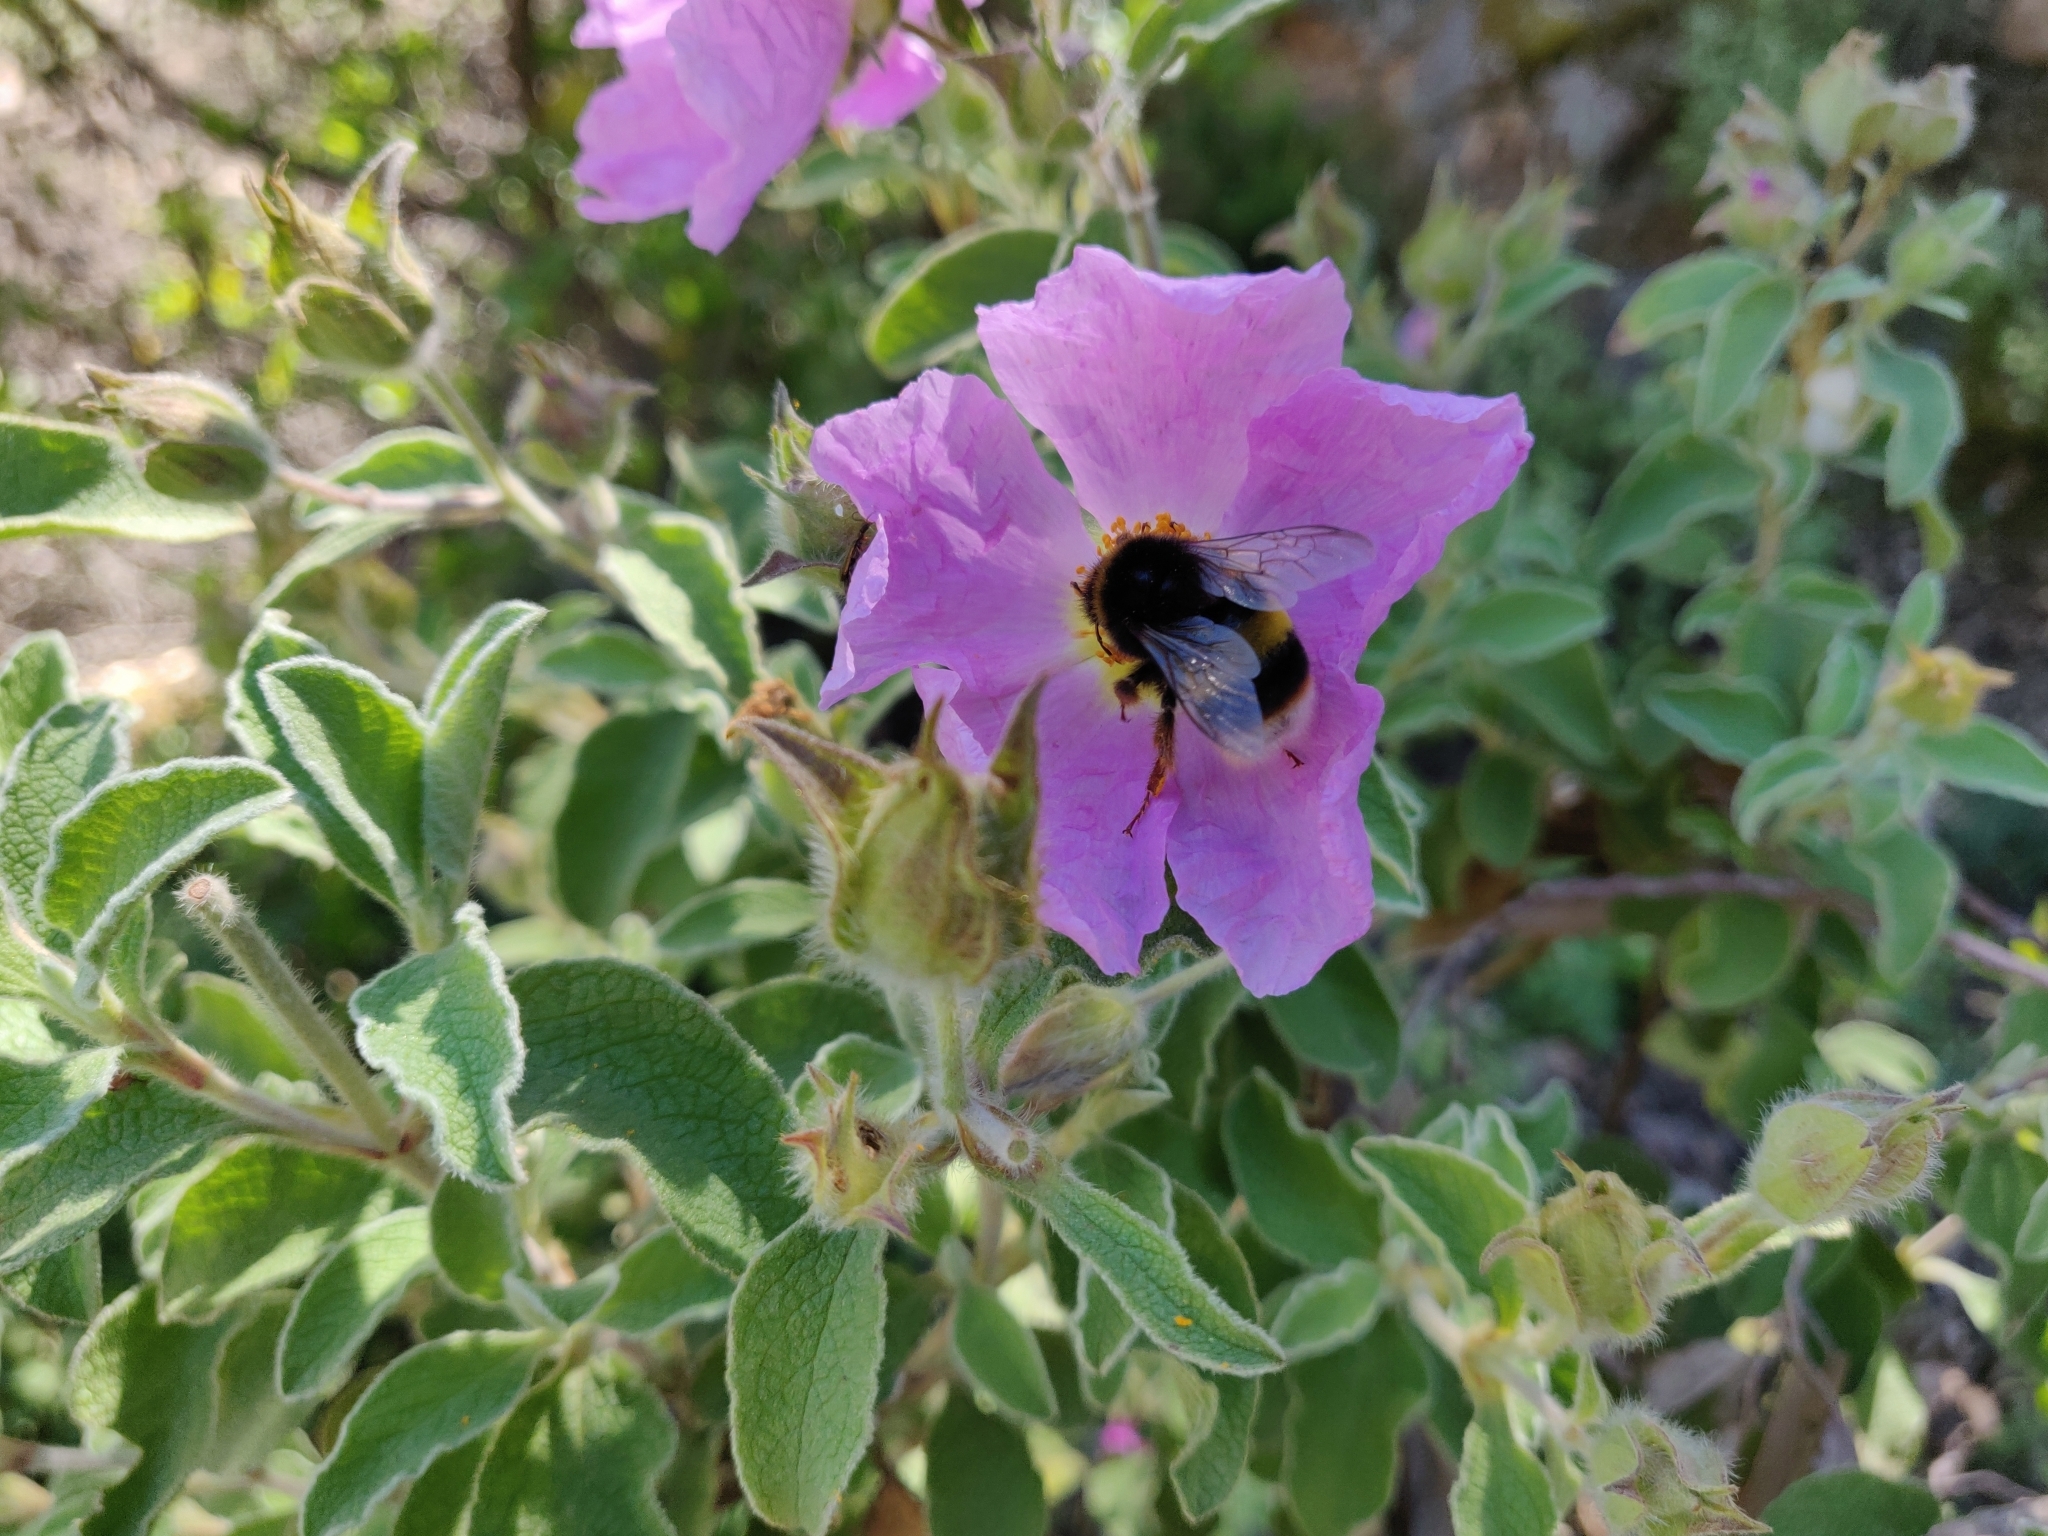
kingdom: Animalia
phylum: Arthropoda
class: Insecta
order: Hymenoptera
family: Apidae
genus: Bombus
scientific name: Bombus terrestris
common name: Buff-tailed bumblebee
